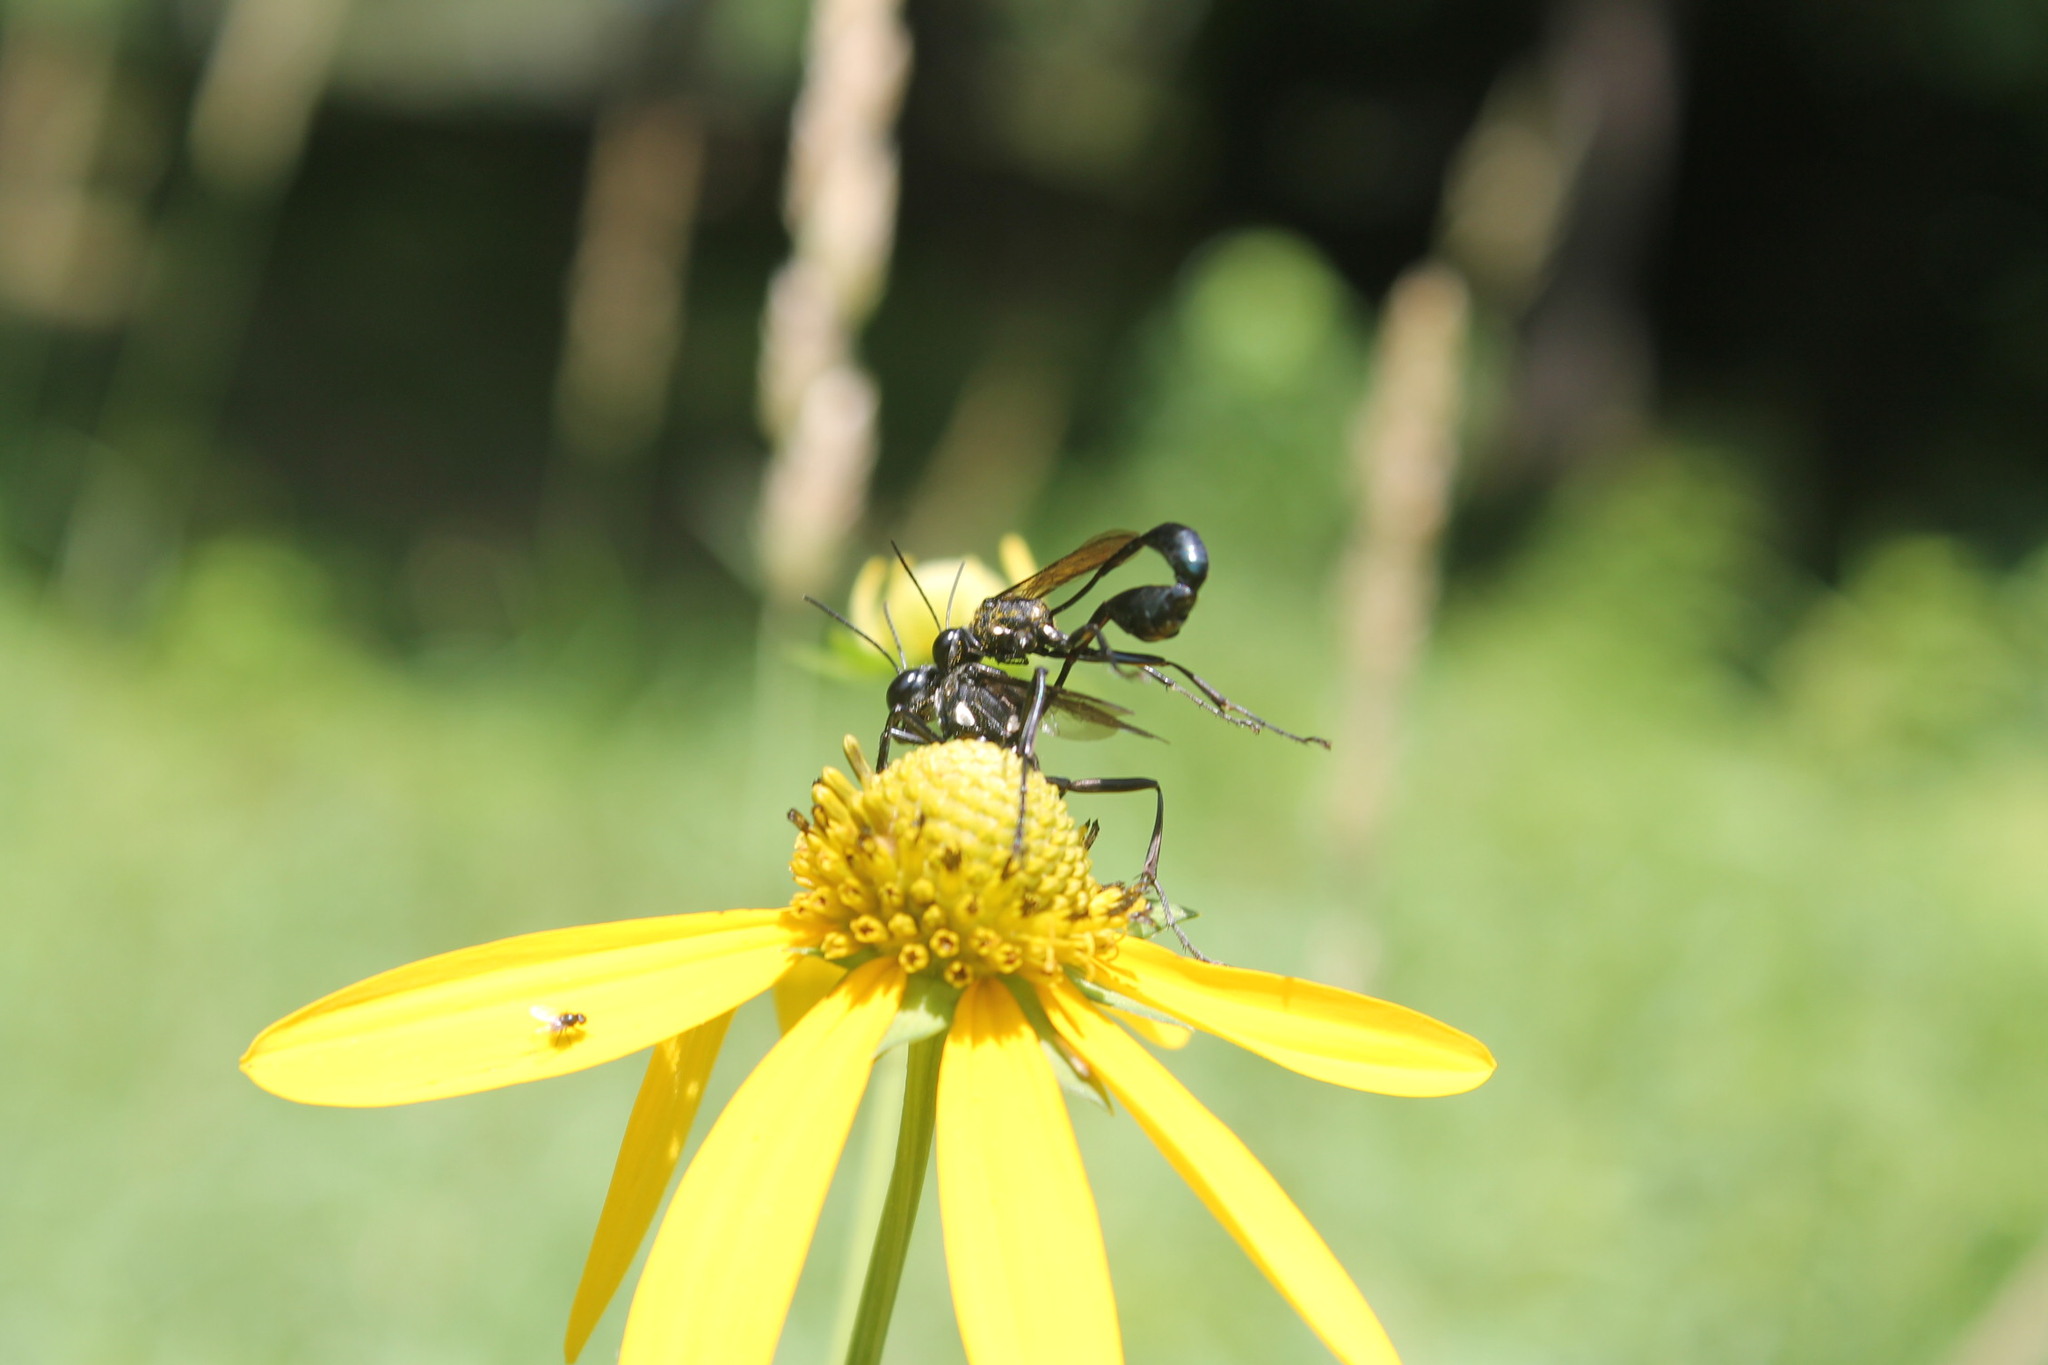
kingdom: Animalia
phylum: Arthropoda
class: Insecta
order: Hymenoptera
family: Sphecidae
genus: Eremnophila
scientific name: Eremnophila aureonotata
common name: Gold-marked thread-waisted wasp
